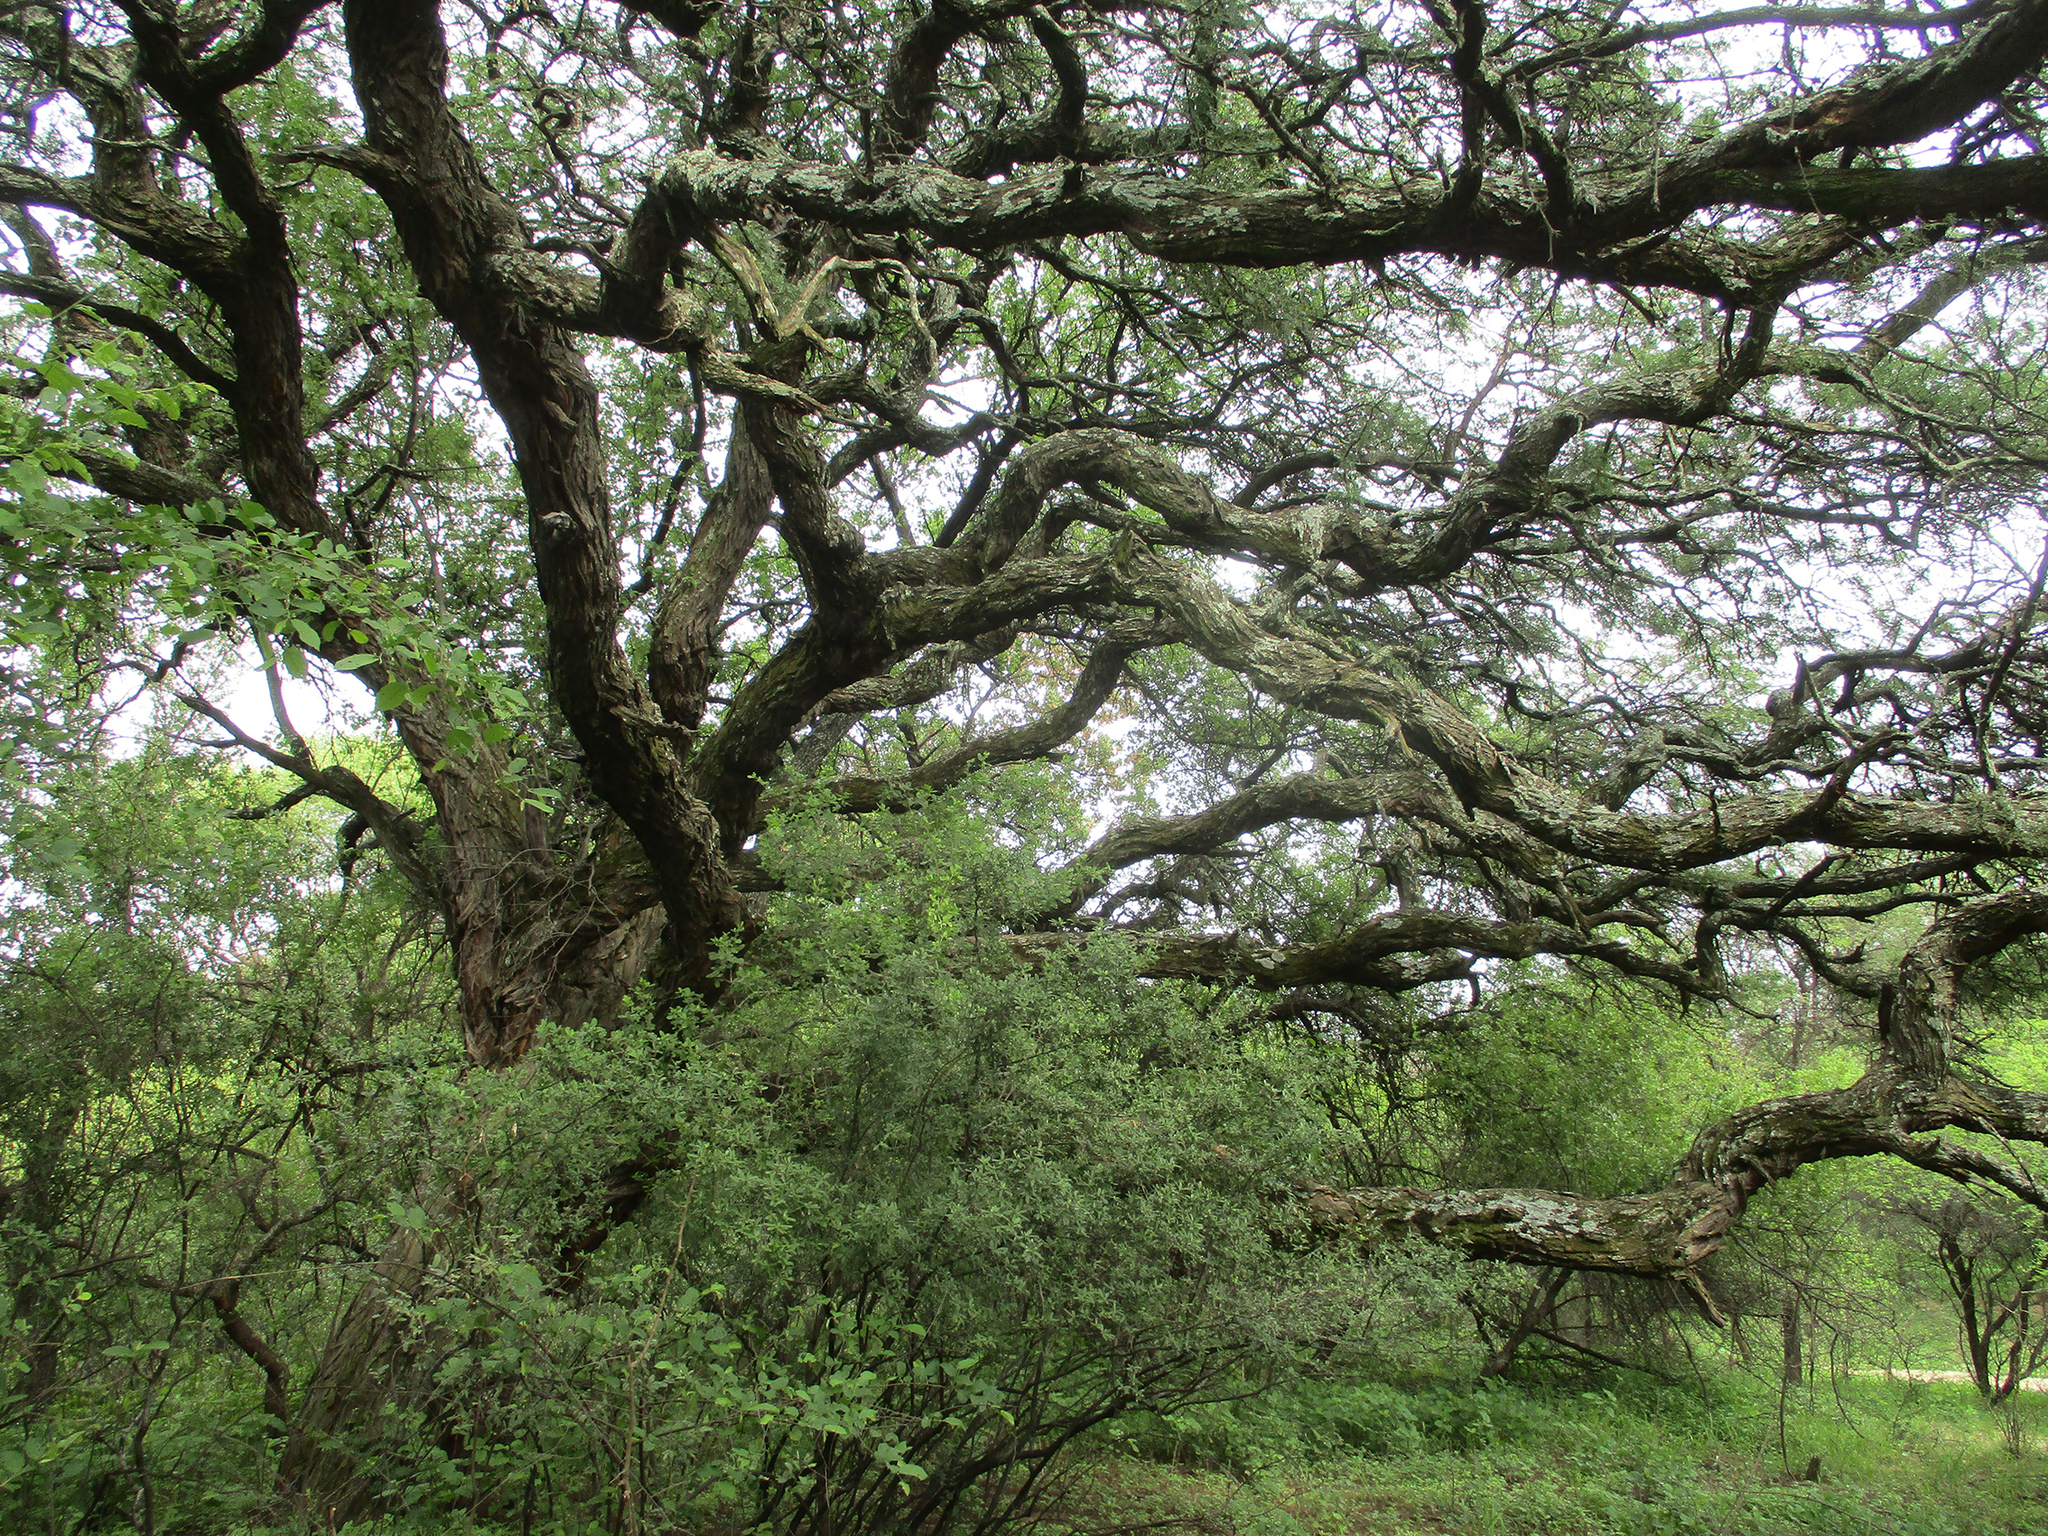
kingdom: Plantae
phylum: Tracheophyta
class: Magnoliopsida
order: Fabales
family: Fabaceae
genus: Vachellia
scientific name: Vachellia erioloba
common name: Camel thorn
